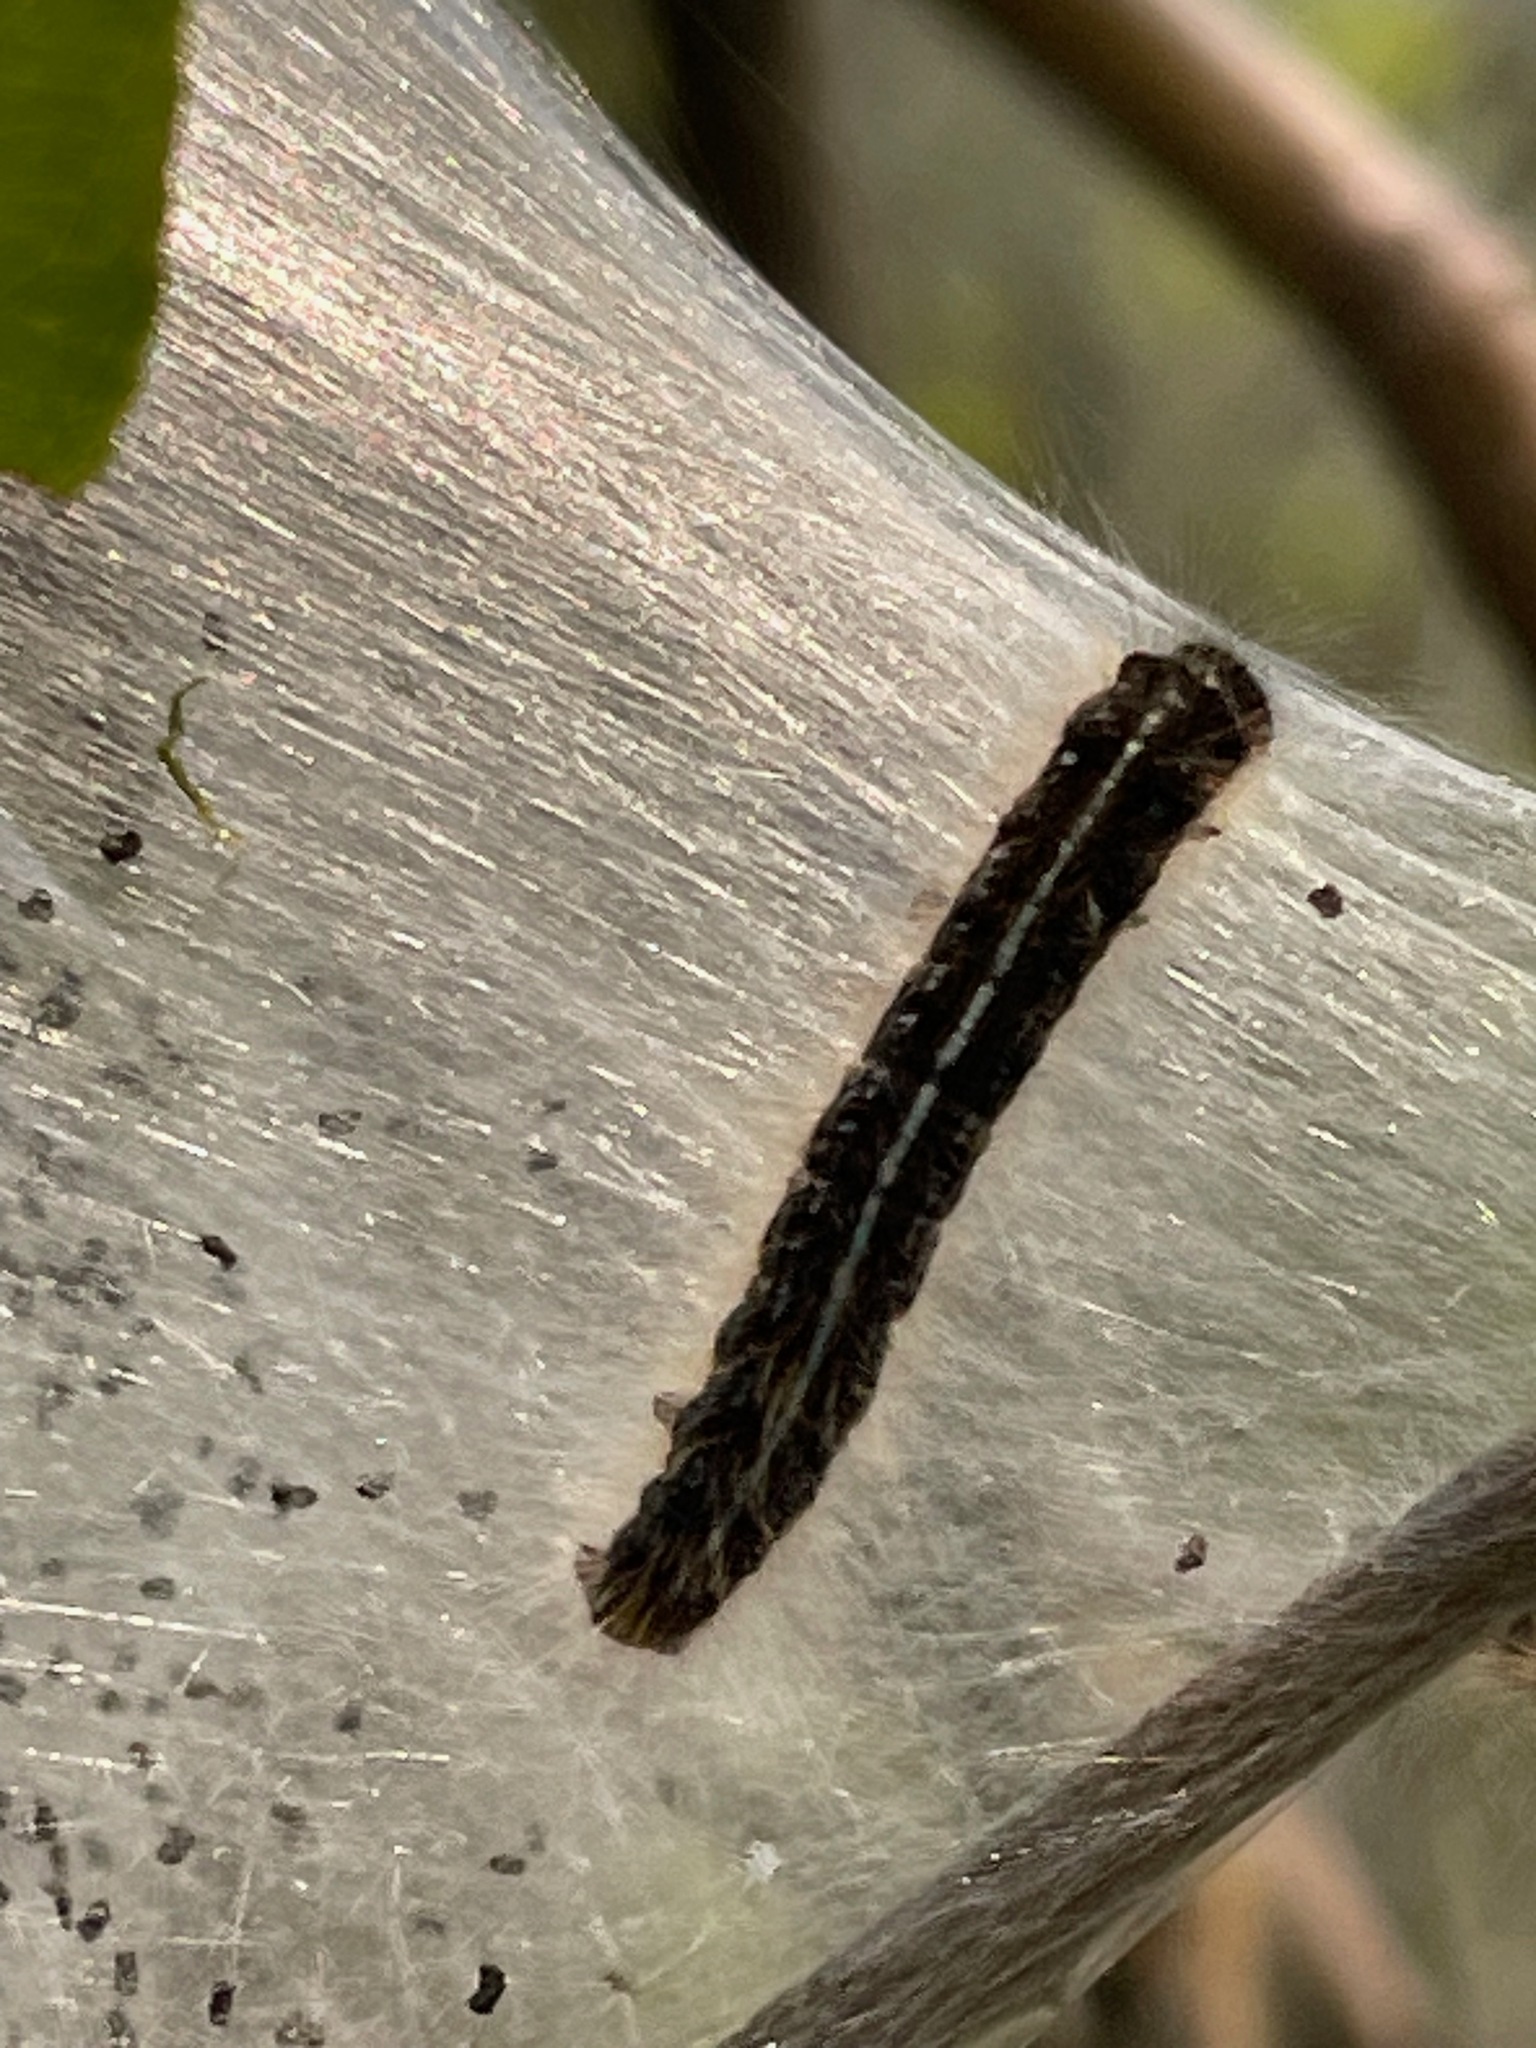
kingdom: Animalia
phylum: Arthropoda
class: Insecta
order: Lepidoptera
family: Lasiocampidae
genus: Malacosoma
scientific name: Malacosoma americana
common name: Eastern tent caterpillar moth
